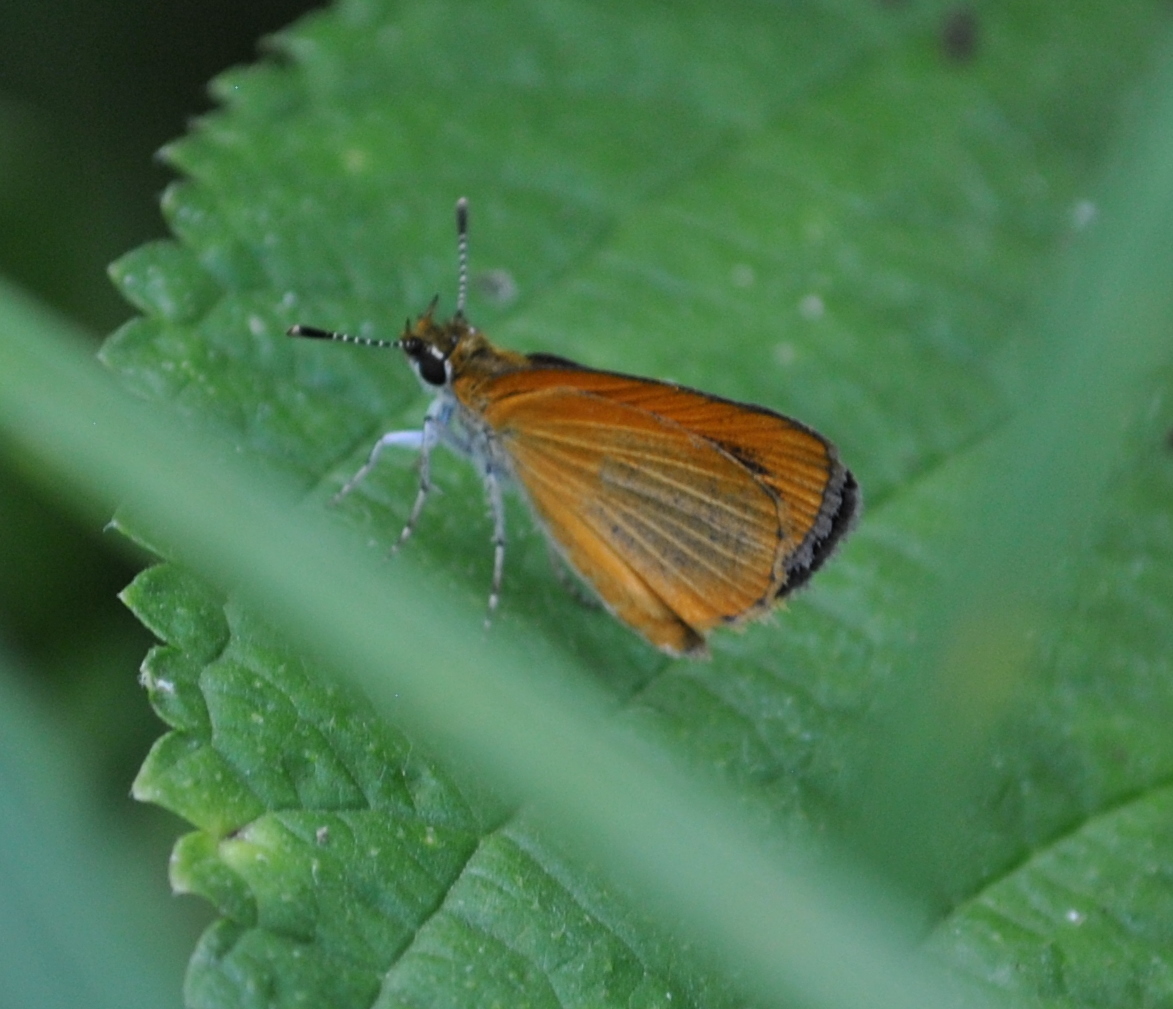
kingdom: Animalia
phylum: Arthropoda
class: Insecta
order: Lepidoptera
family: Hesperiidae
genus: Ancyloxypha
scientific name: Ancyloxypha numitor
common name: Least skipper
